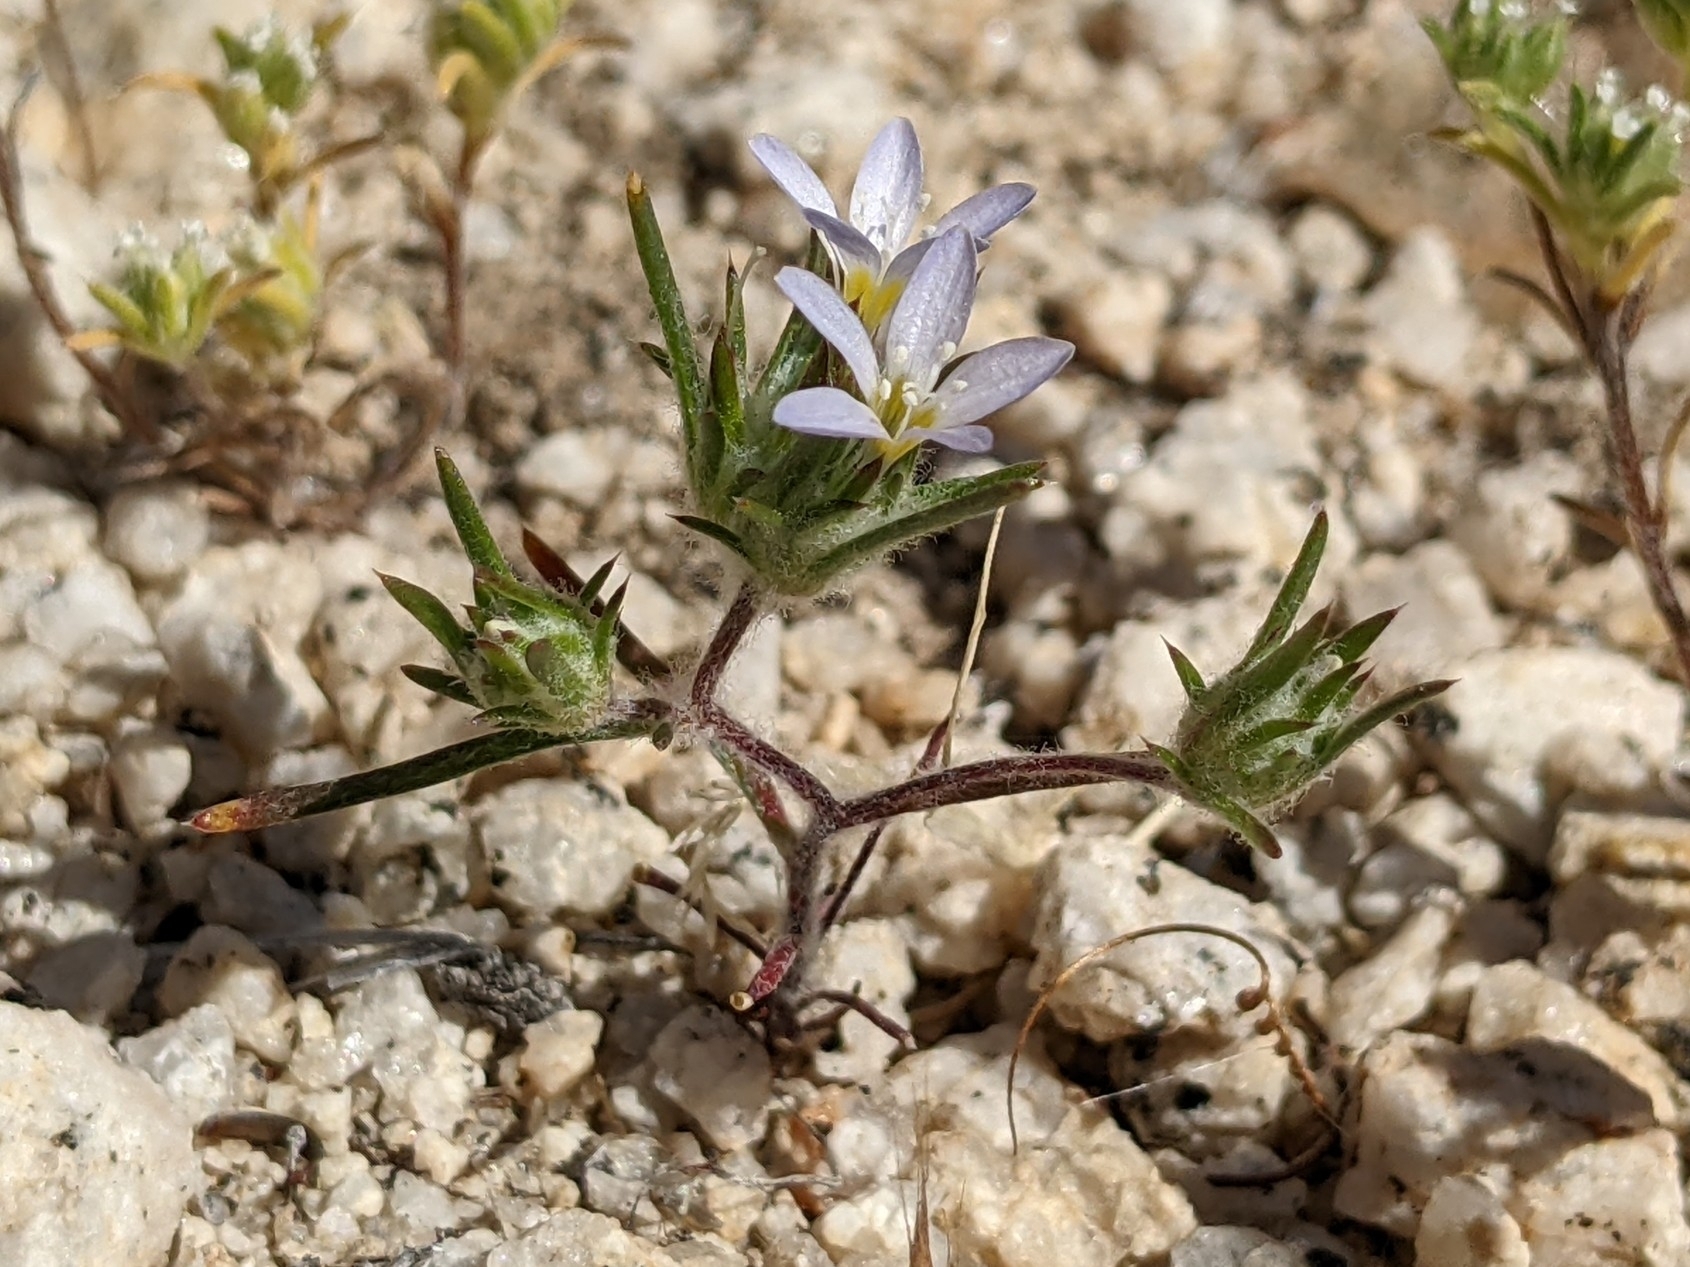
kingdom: Plantae
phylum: Tracheophyta
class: Magnoliopsida
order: Ericales
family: Polemoniaceae
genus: Eriastrum
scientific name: Eriastrum diffusum
